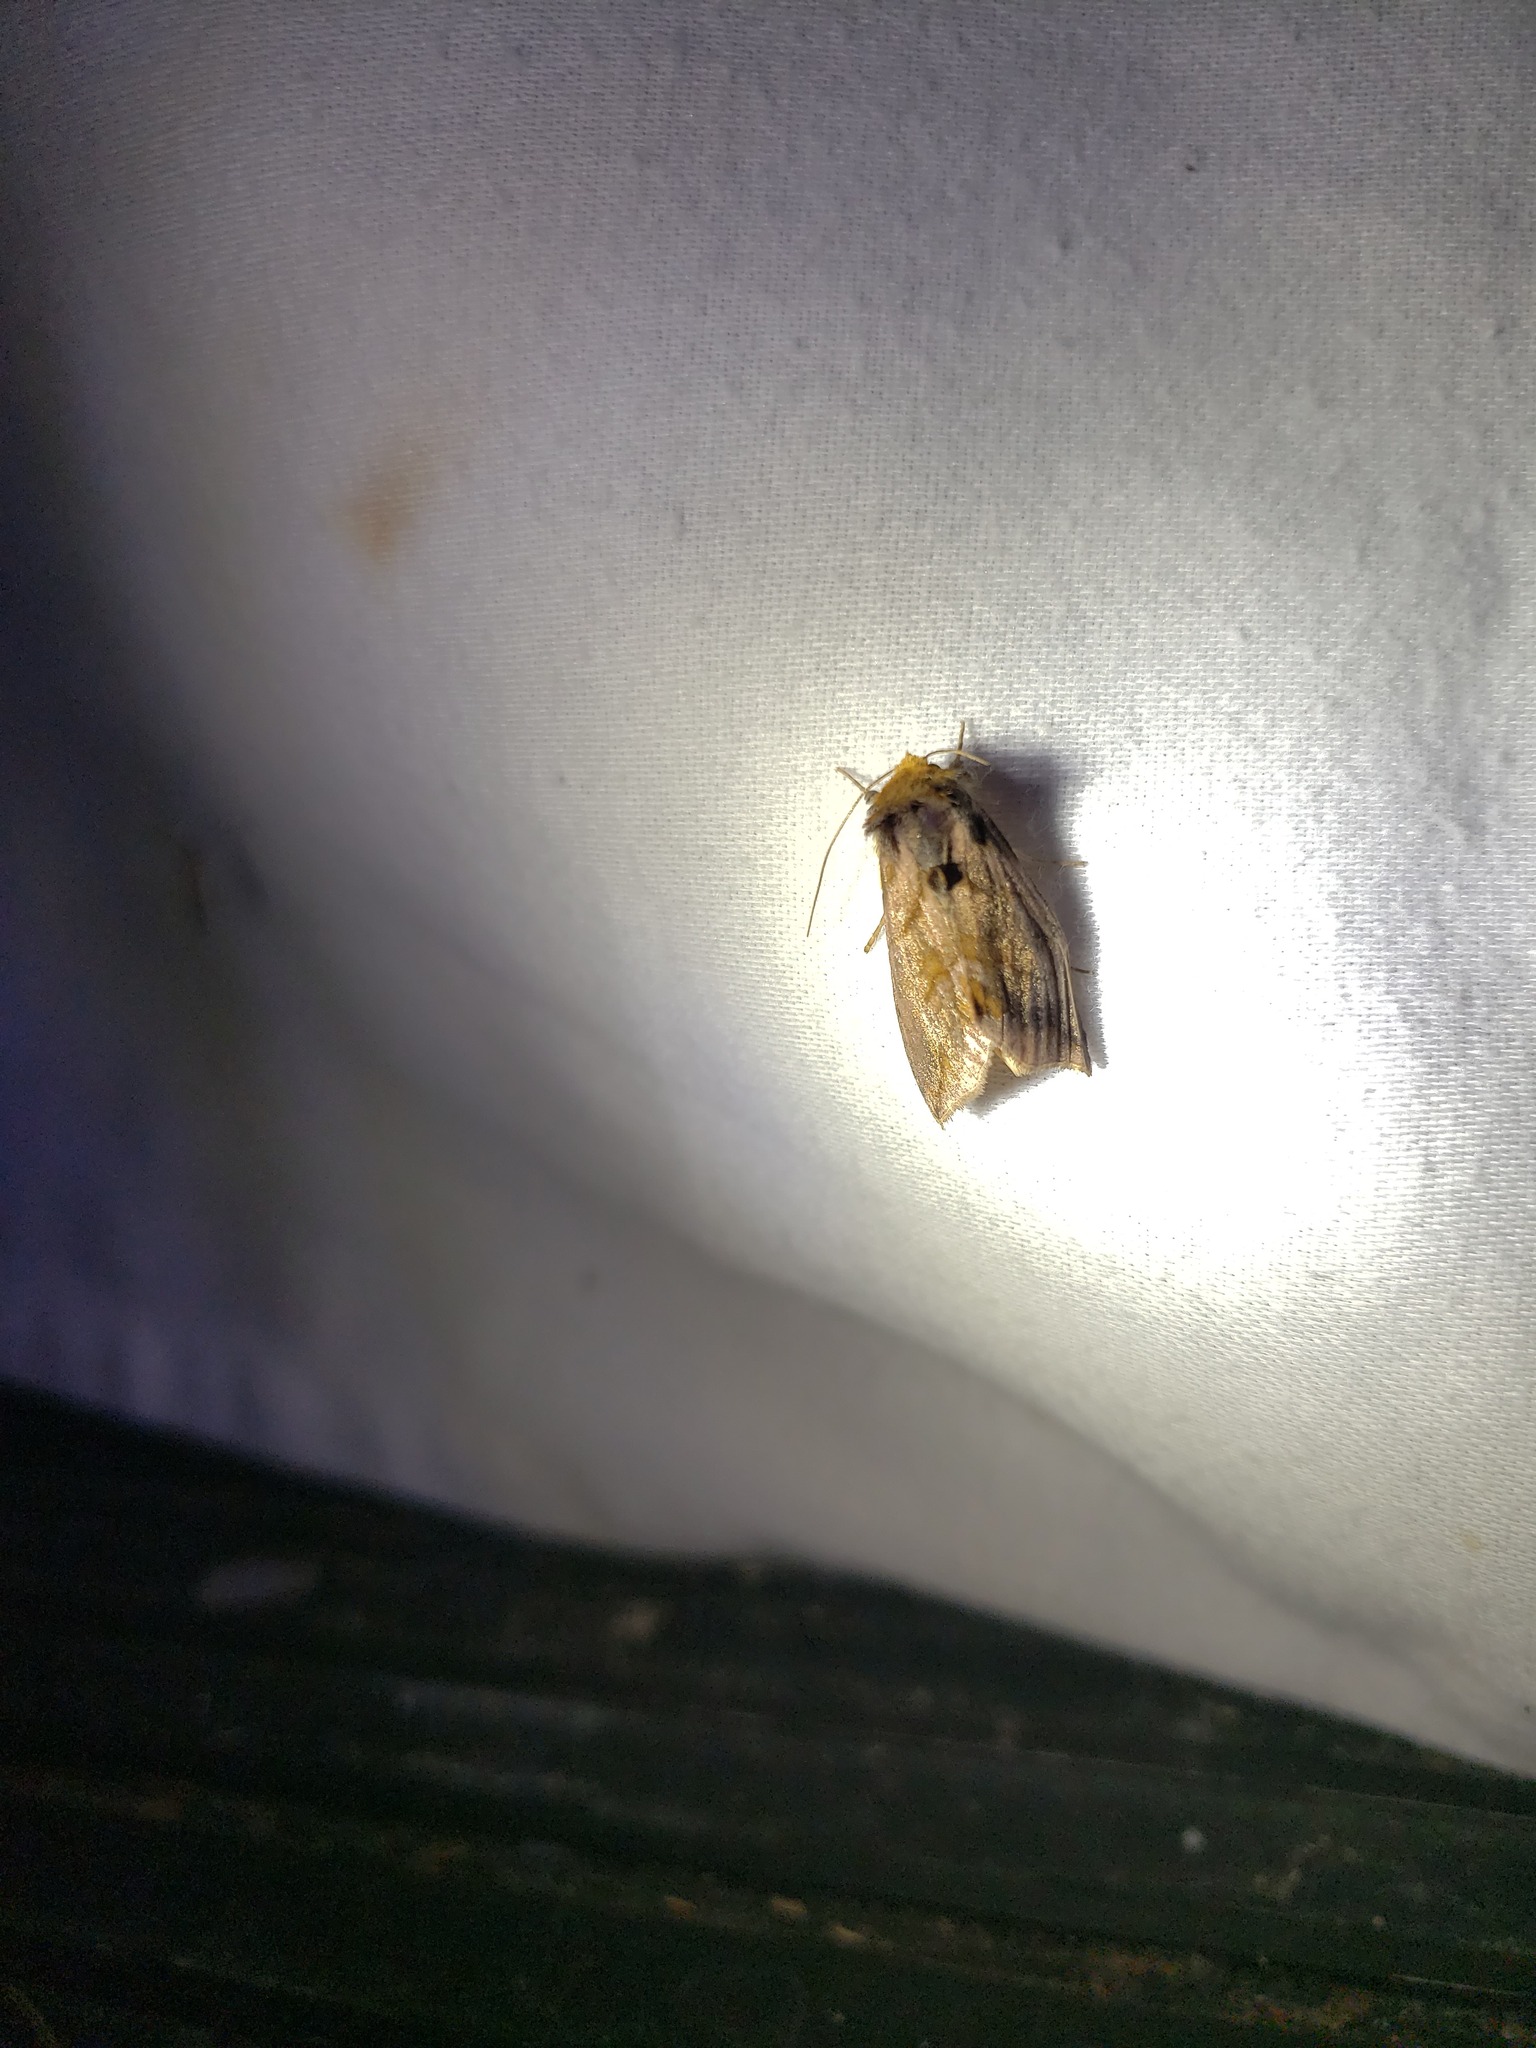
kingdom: Animalia
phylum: Arthropoda
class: Insecta
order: Lepidoptera
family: Noctuidae
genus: Allagrapha
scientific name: Allagrapha aerea
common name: Unspotted looper moth
